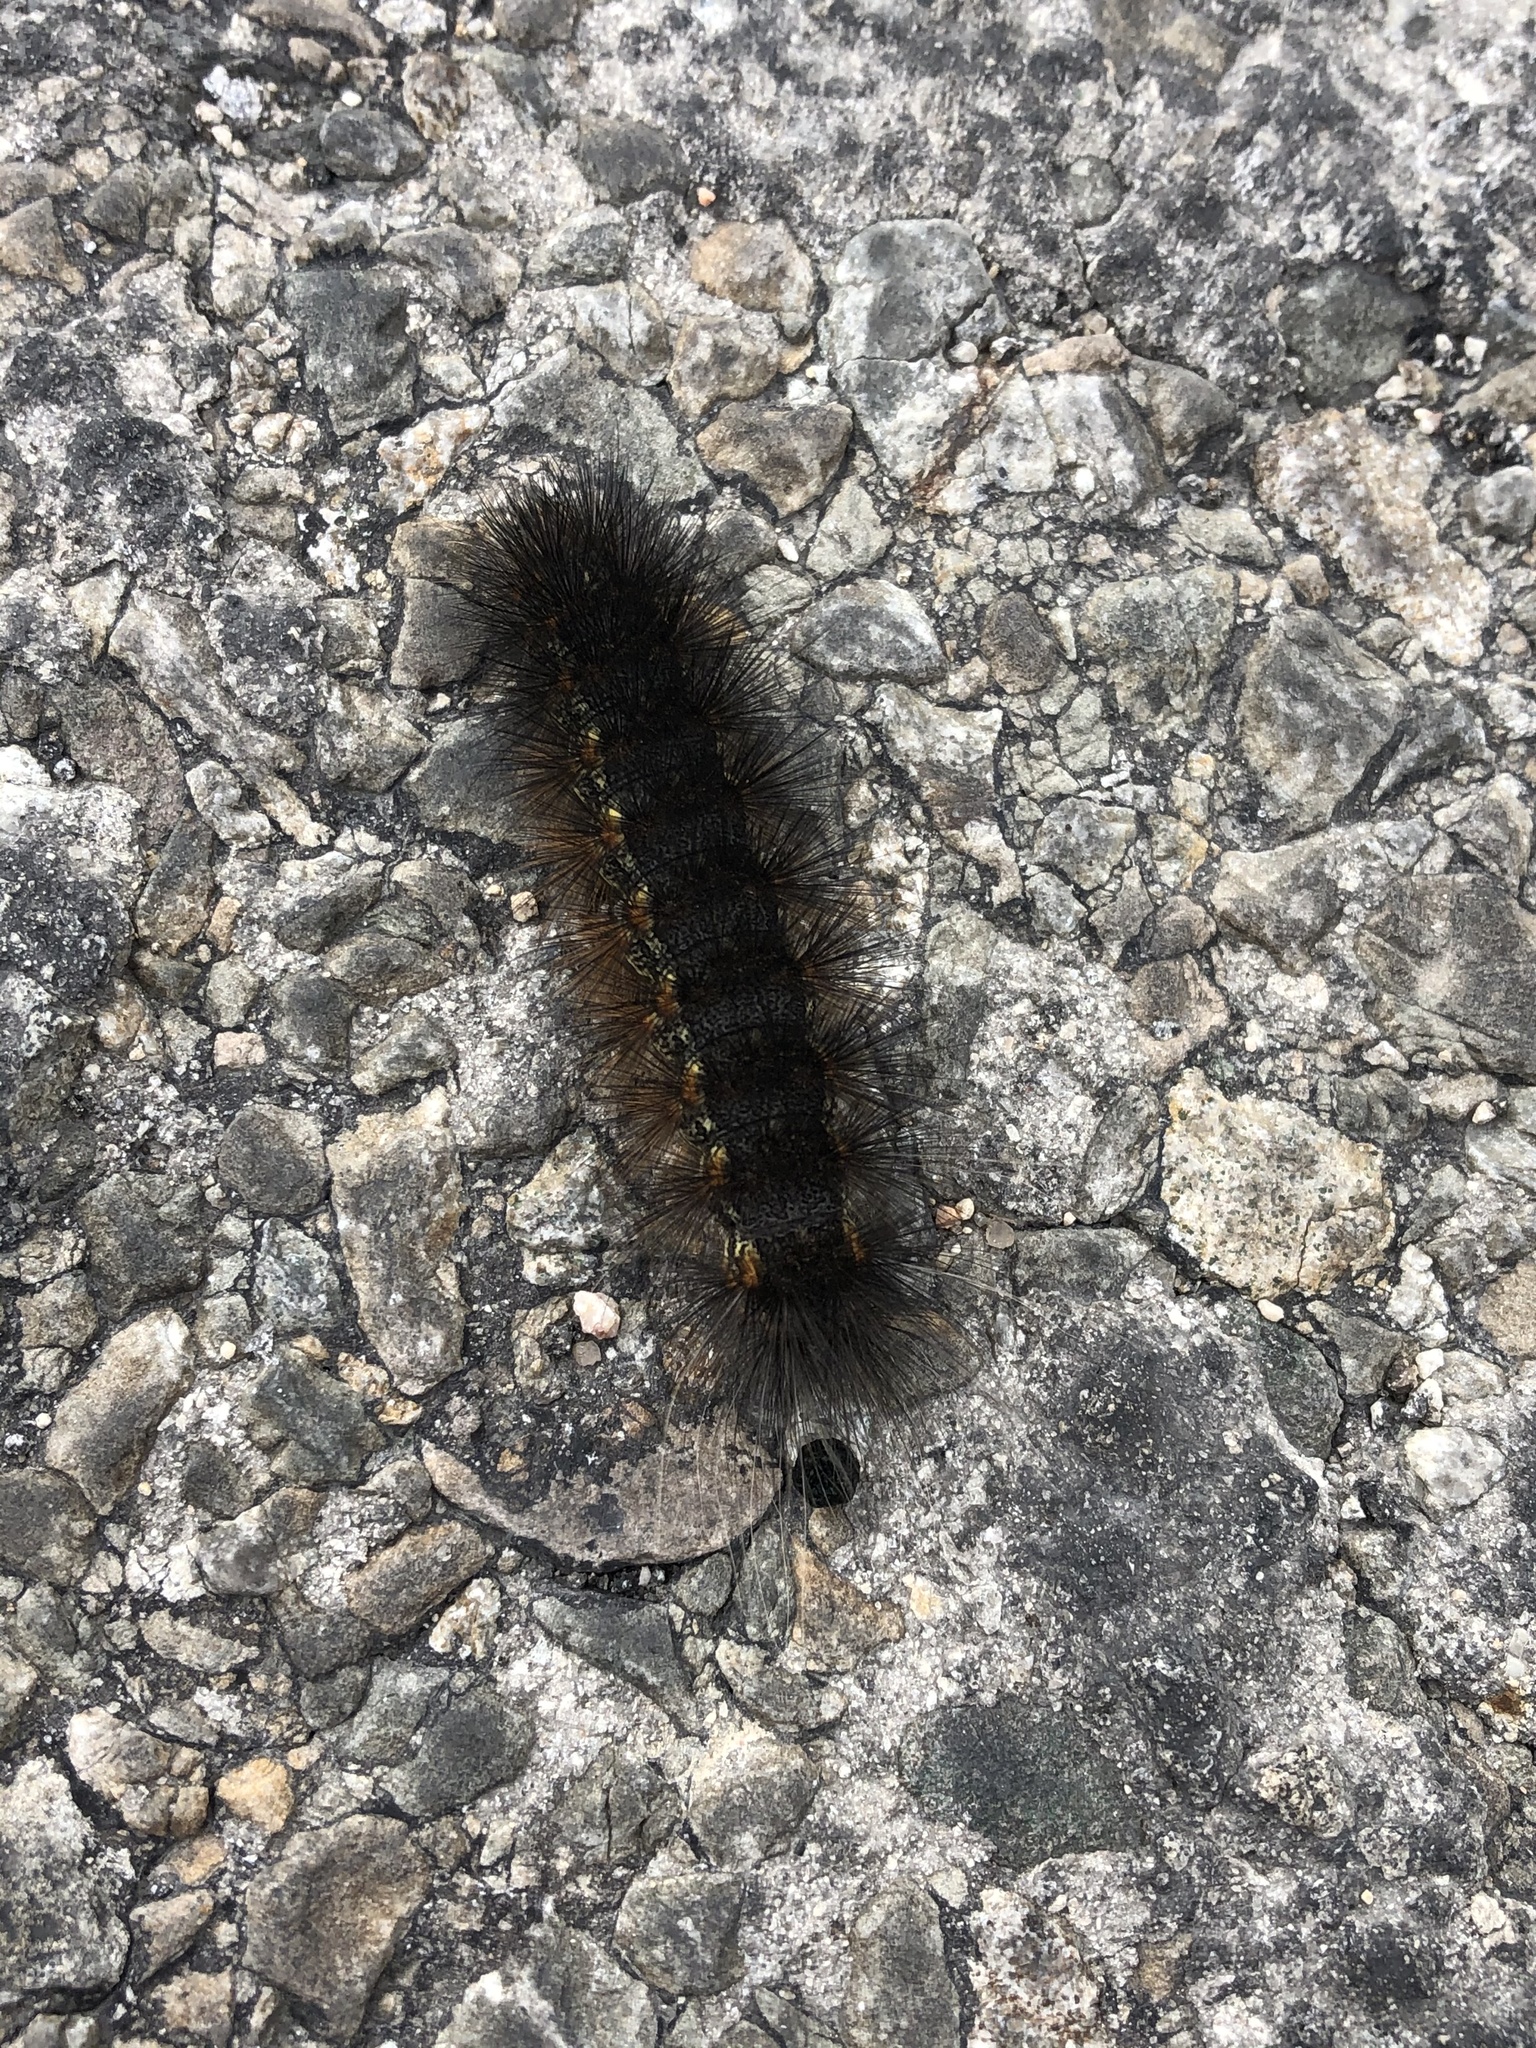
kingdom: Animalia
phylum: Arthropoda
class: Insecta
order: Lepidoptera
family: Erebidae
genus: Estigmene
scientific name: Estigmene acrea
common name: Salt marsh moth
